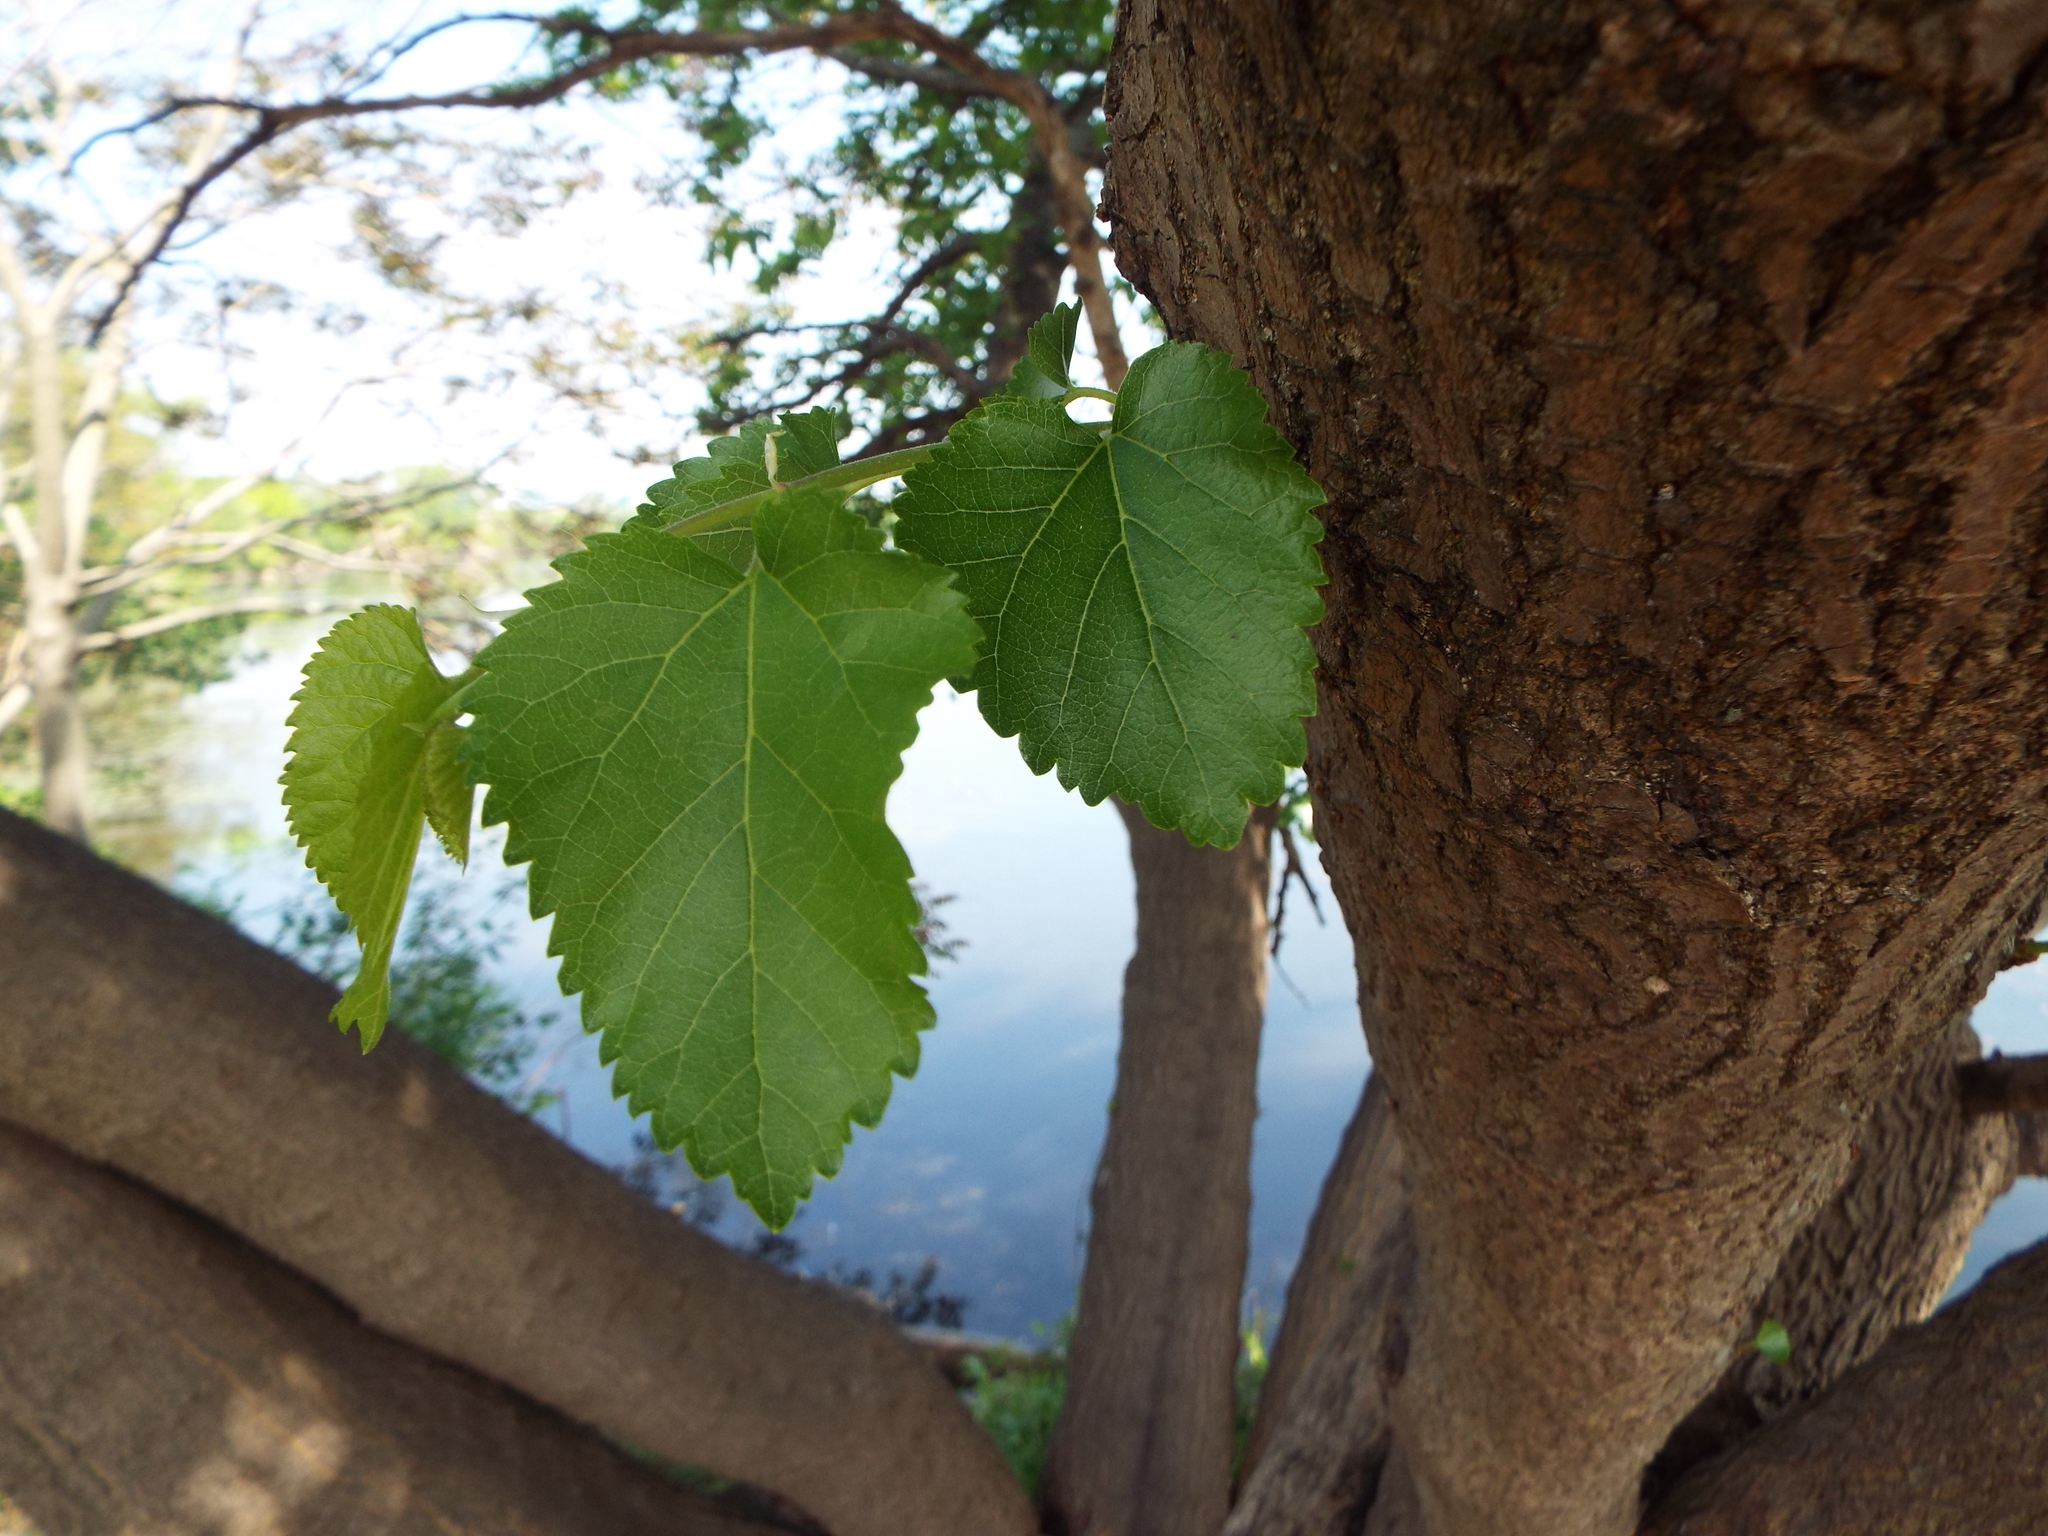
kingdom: Plantae
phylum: Tracheophyta
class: Magnoliopsida
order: Rosales
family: Moraceae
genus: Morus
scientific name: Morus alba
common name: White mulberry
